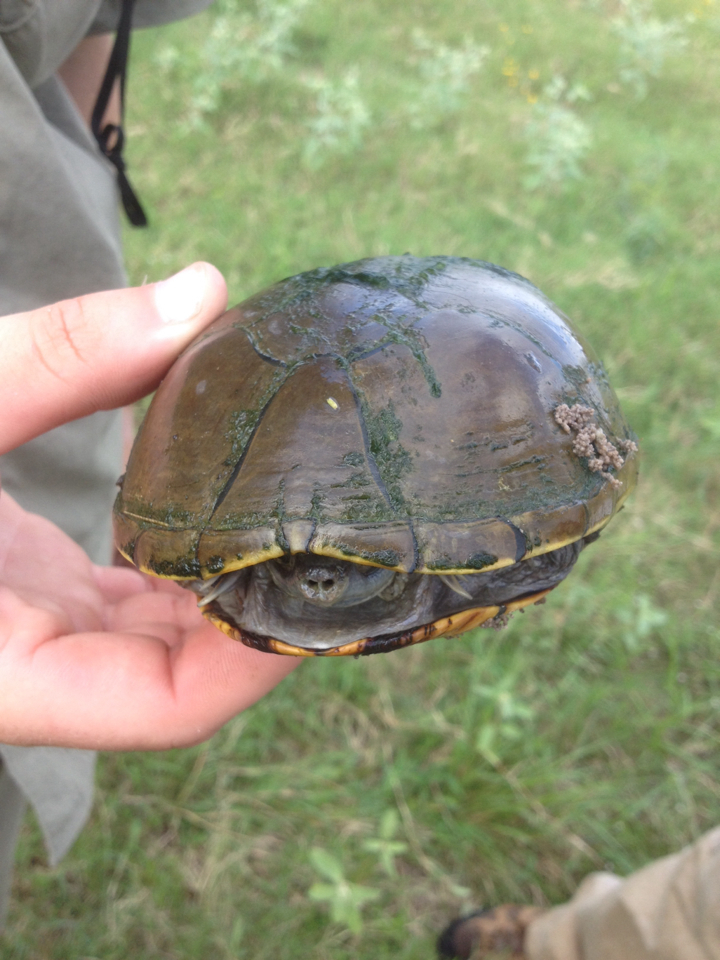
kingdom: Animalia
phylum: Chordata
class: Testudines
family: Kinosternidae
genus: Kinosternon
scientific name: Kinosternon flavescens
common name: Yellow mud turtle
